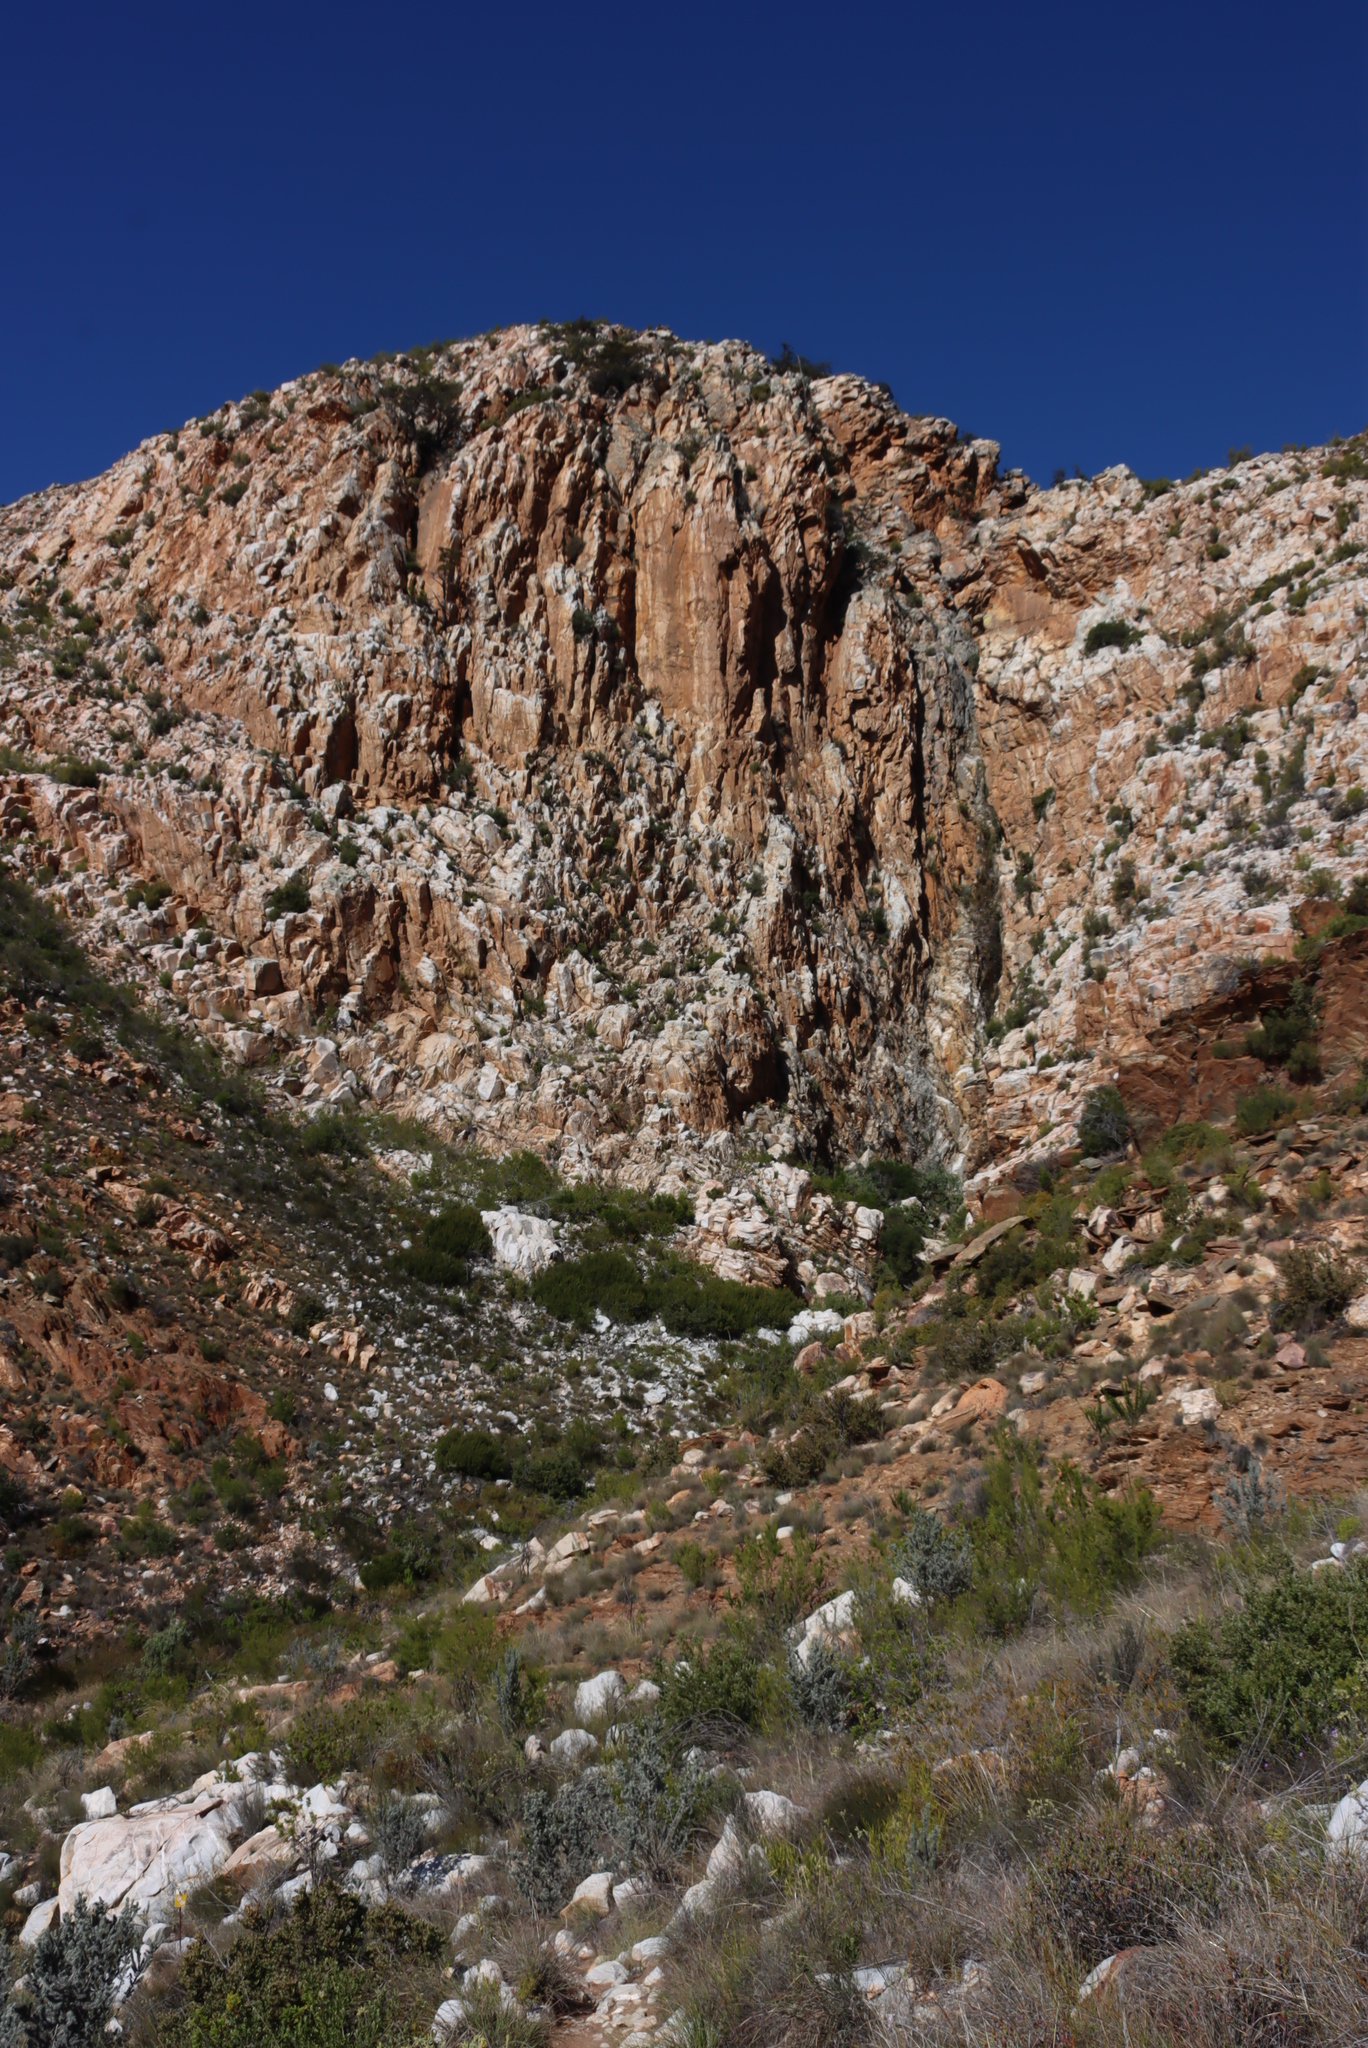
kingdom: Plantae
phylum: Tracheophyta
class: Pinopsida
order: Pinales
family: Cupressaceae
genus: Widdringtonia
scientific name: Widdringtonia schwarzii
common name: Baviaans cedar
